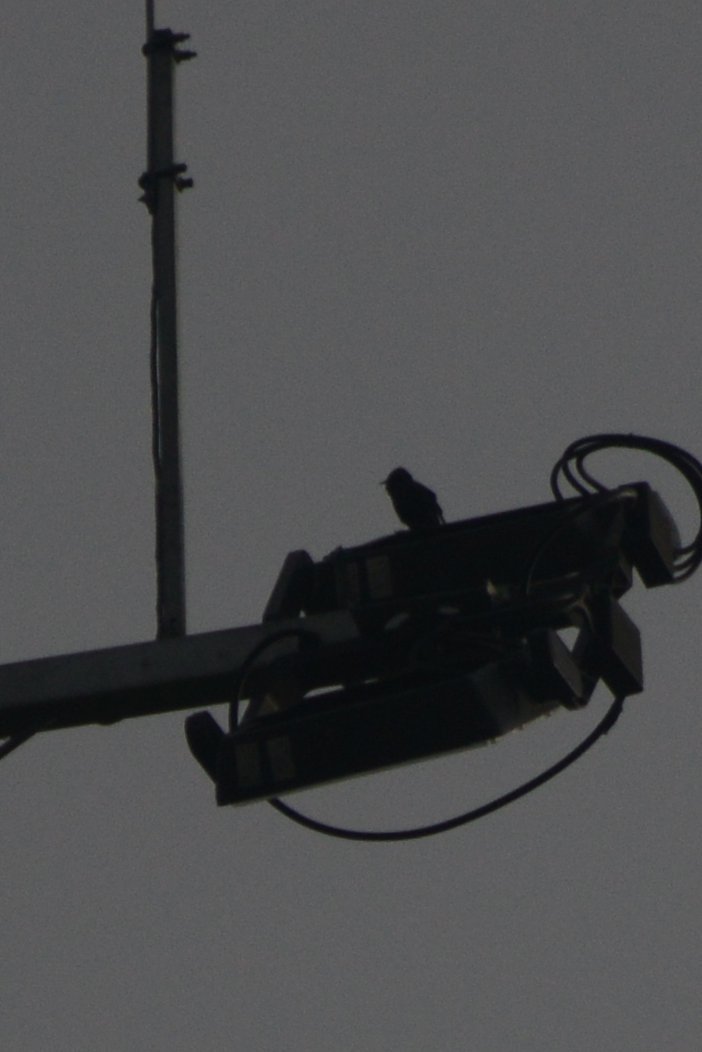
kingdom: Animalia
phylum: Chordata
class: Aves
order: Passeriformes
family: Sturnidae
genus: Sturnus
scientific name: Sturnus vulgaris
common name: Common starling
